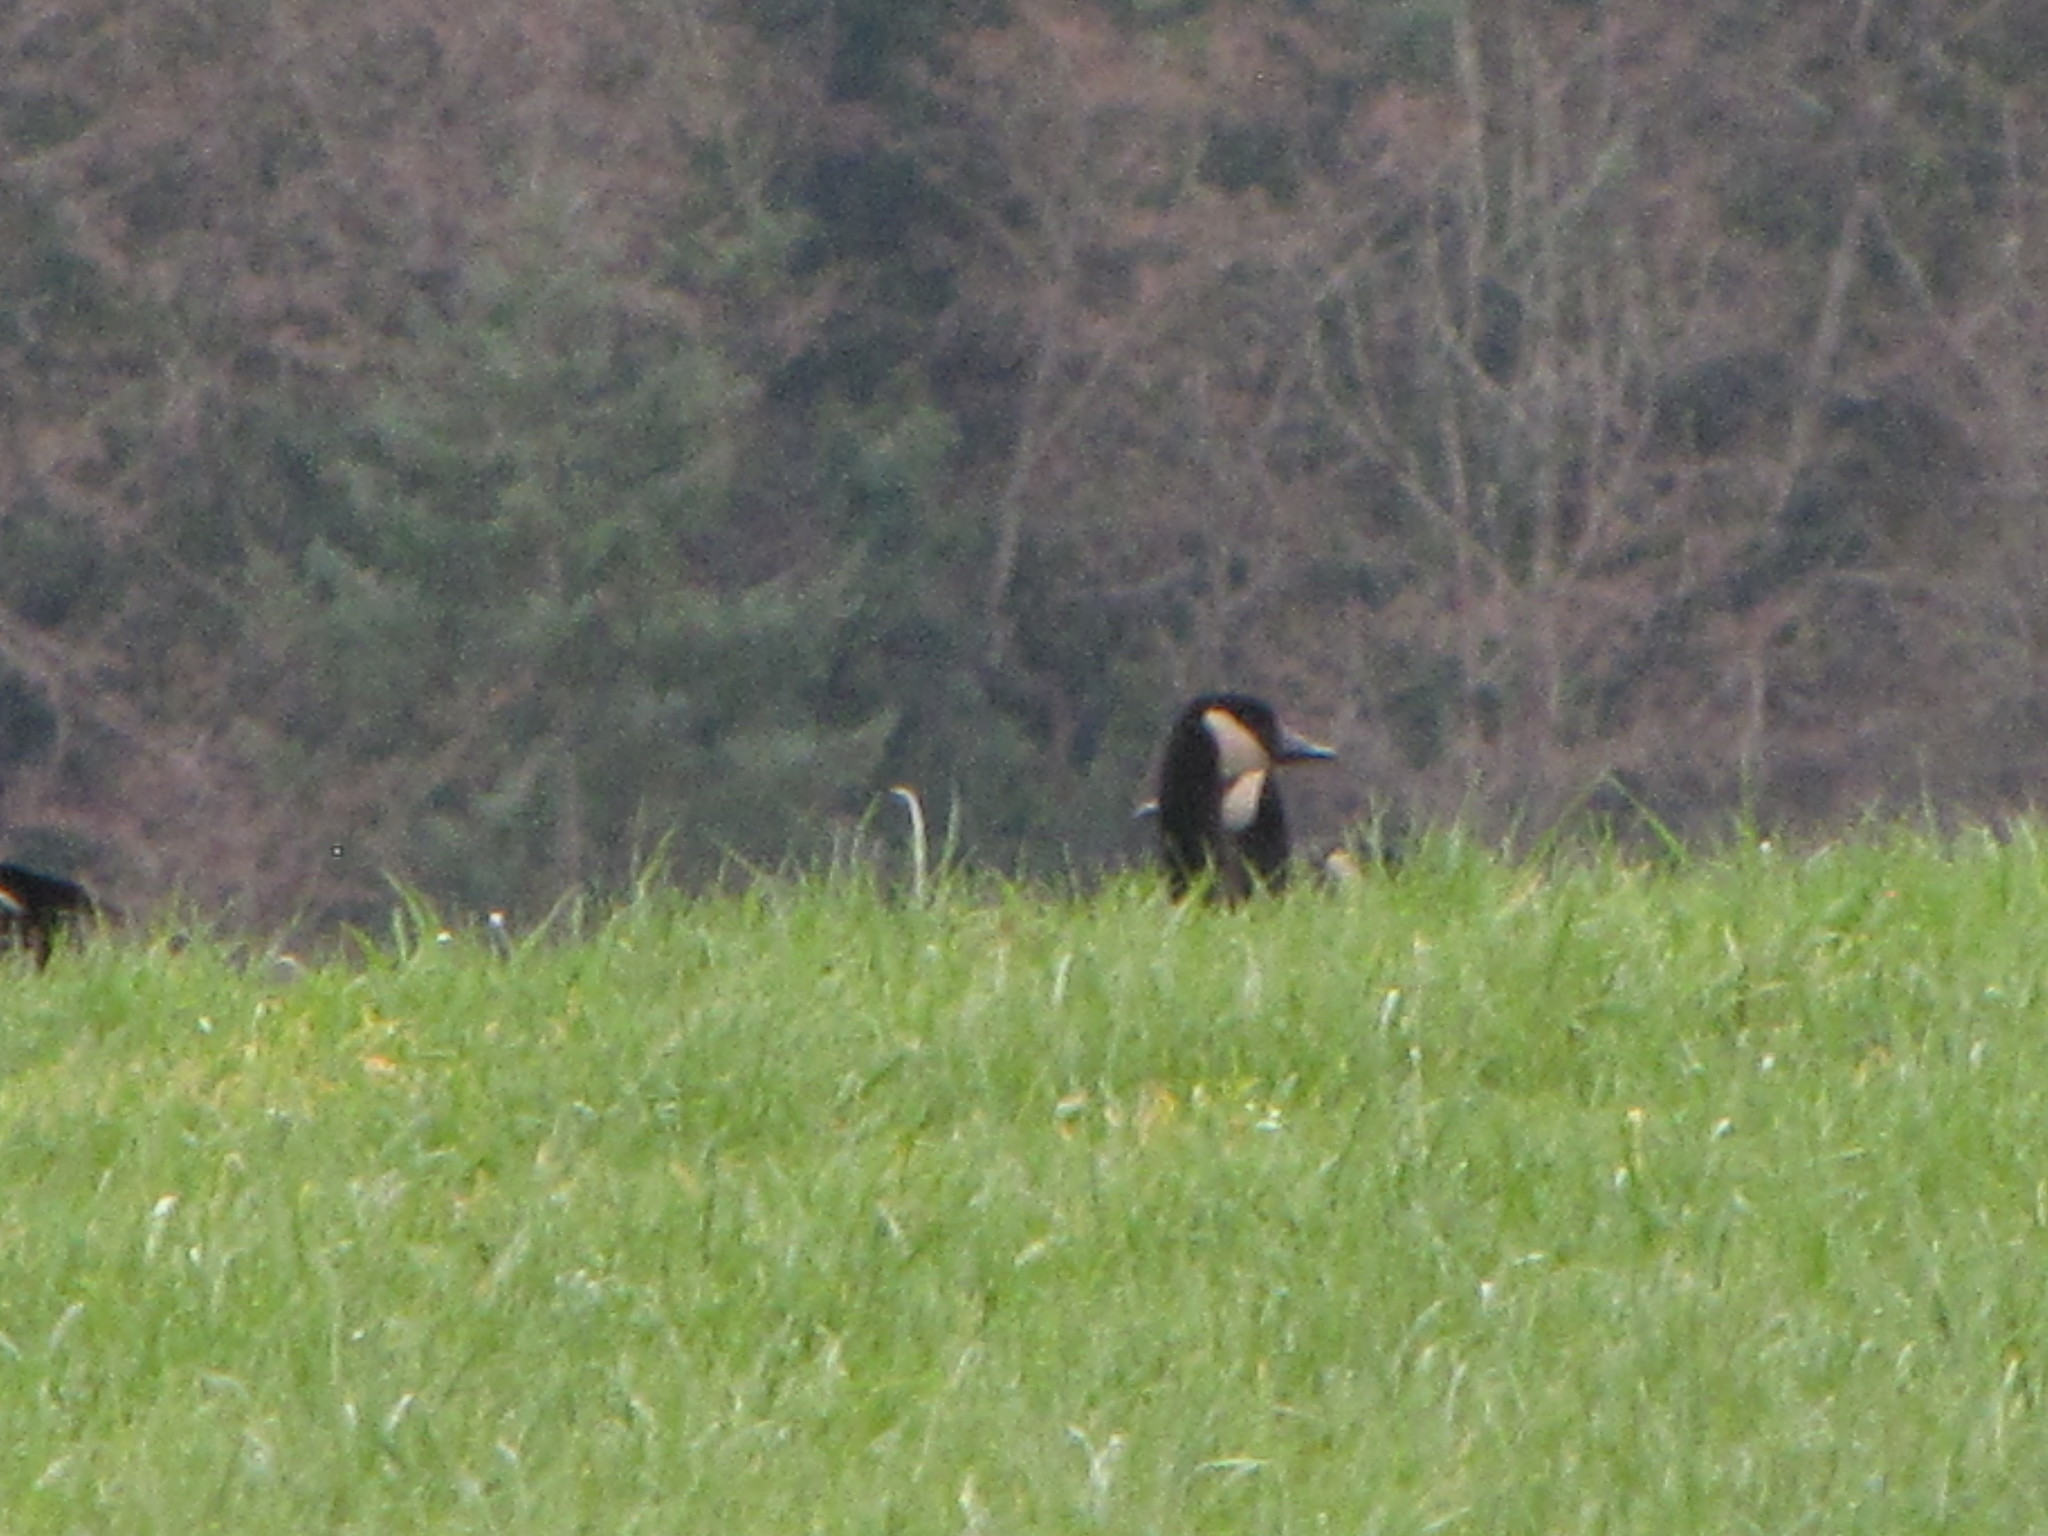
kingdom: Animalia
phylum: Chordata
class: Aves
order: Anseriformes
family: Anatidae
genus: Branta
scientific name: Branta canadensis
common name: Canada goose
